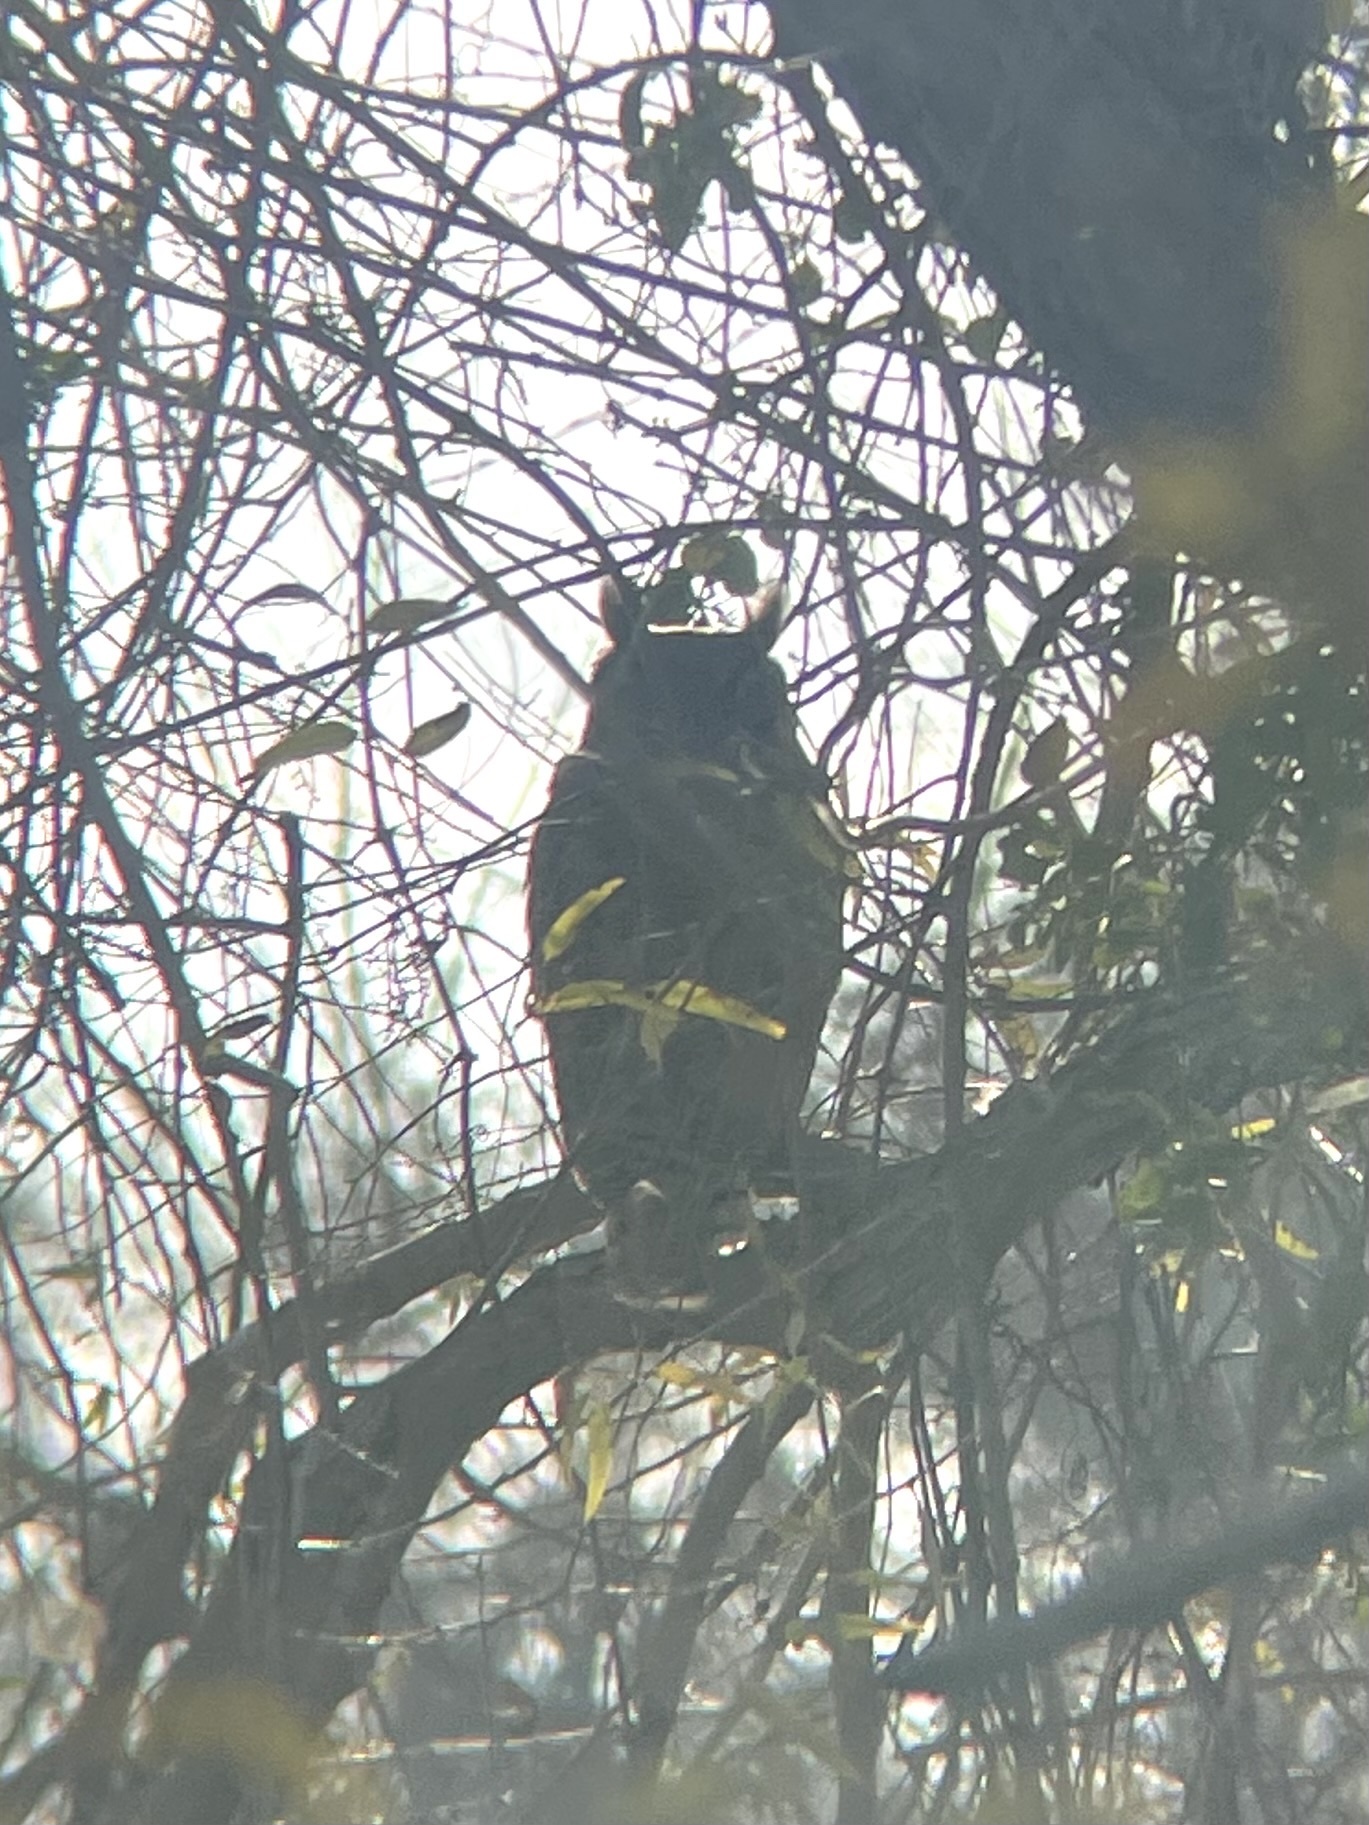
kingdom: Animalia
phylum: Chordata
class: Aves
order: Strigiformes
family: Strigidae
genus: Bubo
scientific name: Bubo virginianus
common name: Great horned owl
